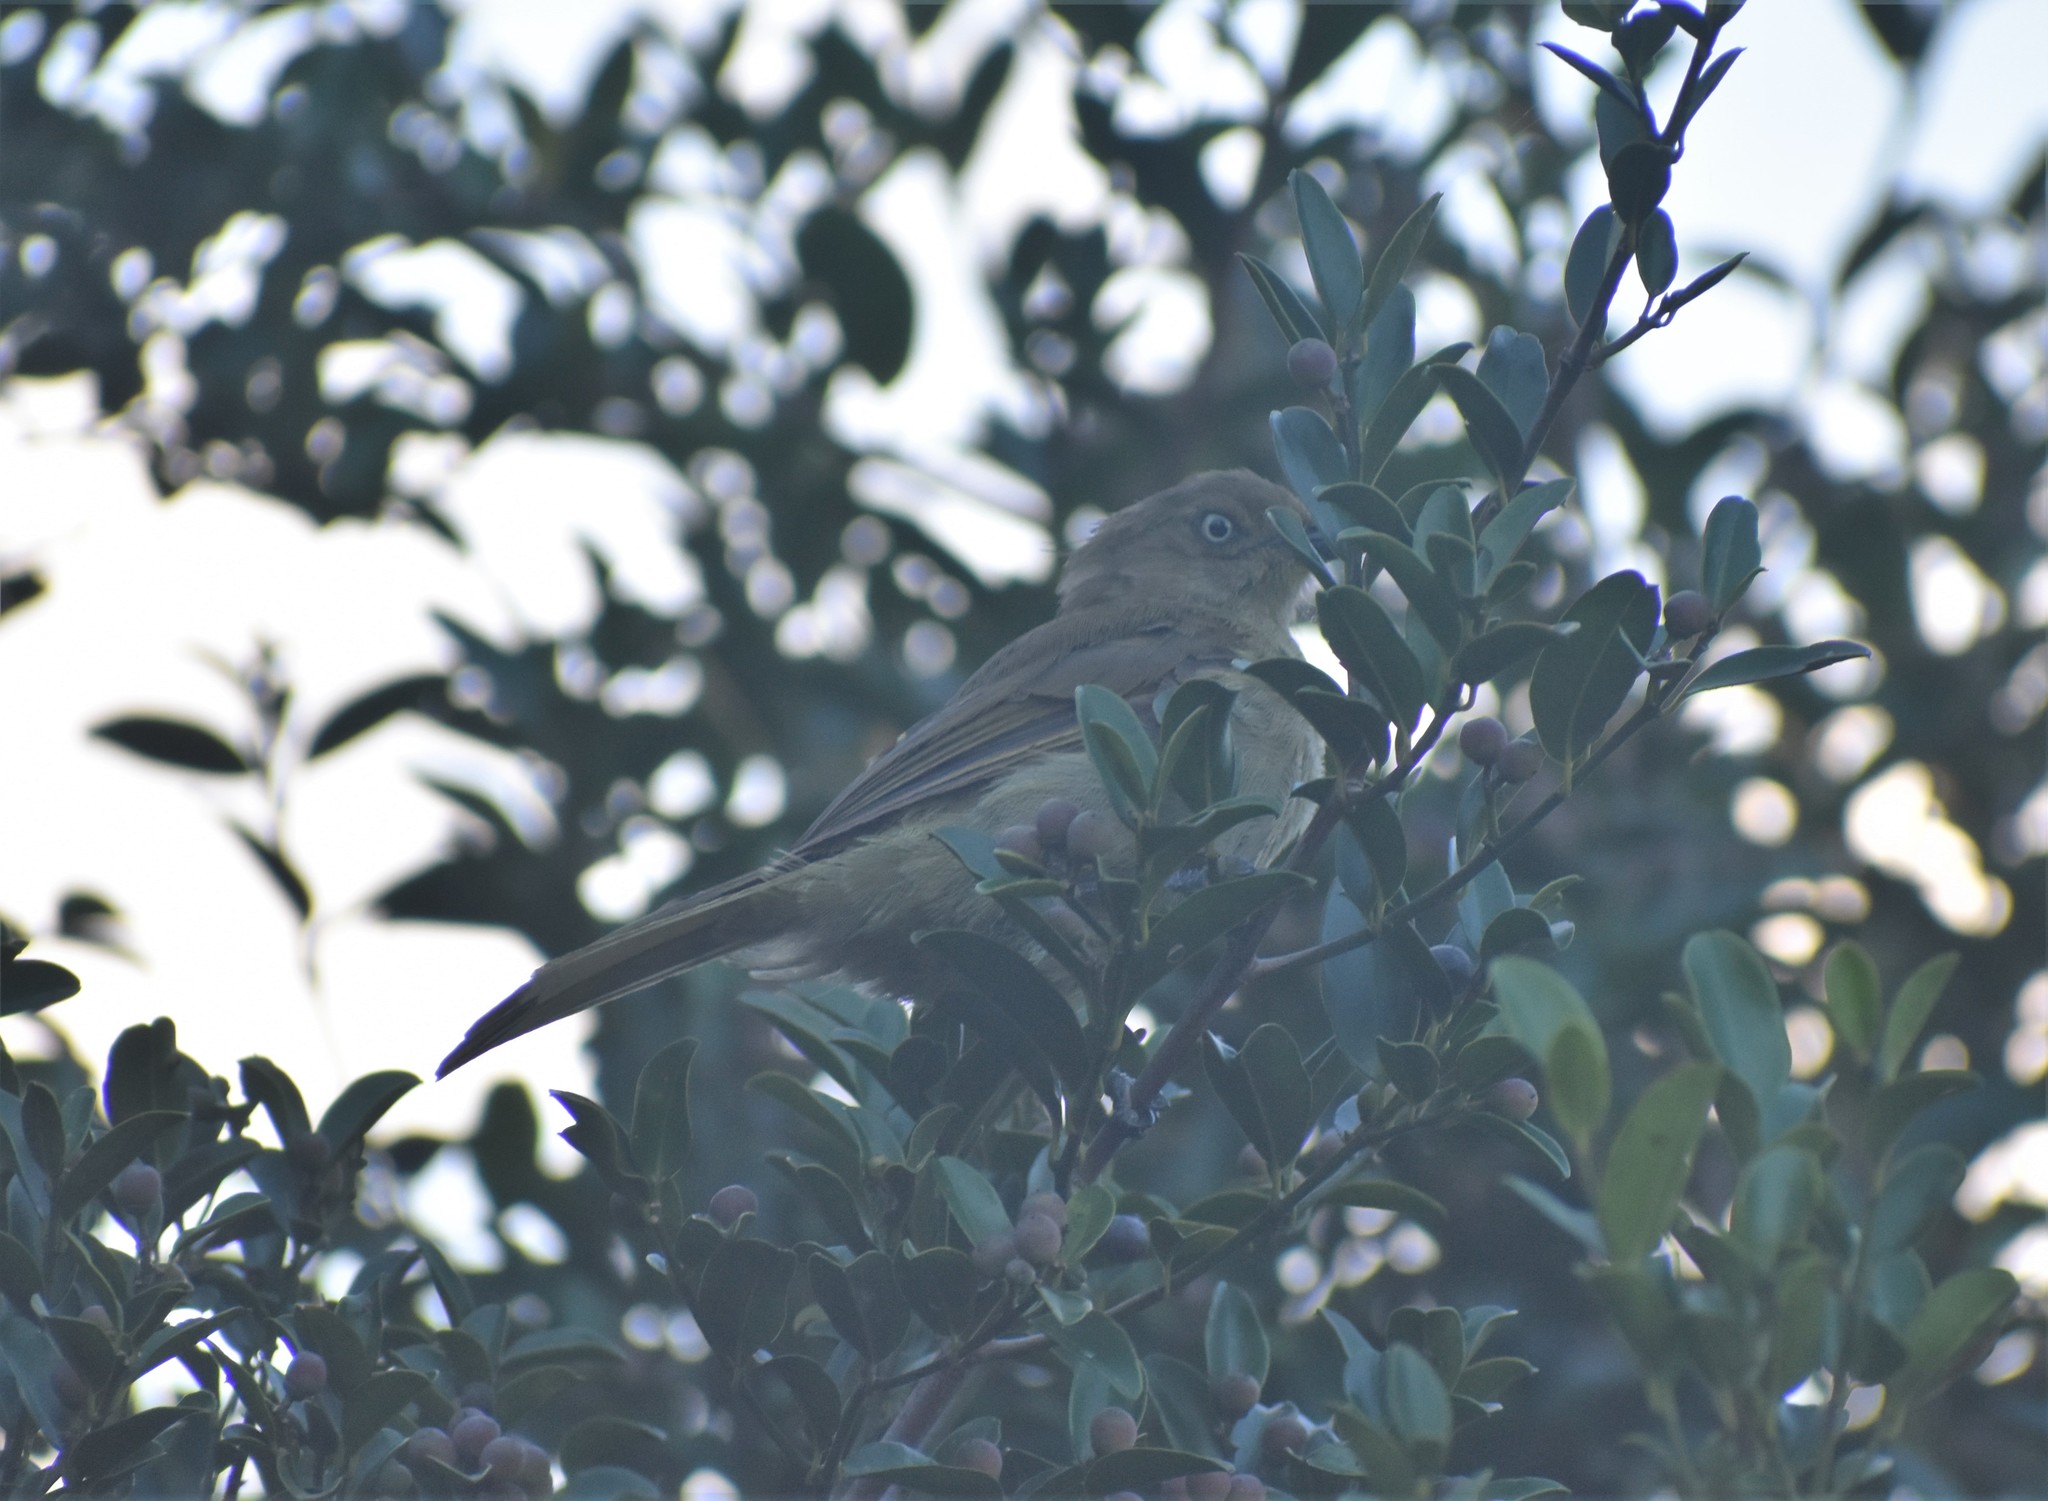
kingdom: Animalia
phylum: Chordata
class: Aves
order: Passeriformes
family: Pycnonotidae
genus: Andropadus
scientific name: Andropadus importunus
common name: Sombre greenbul
